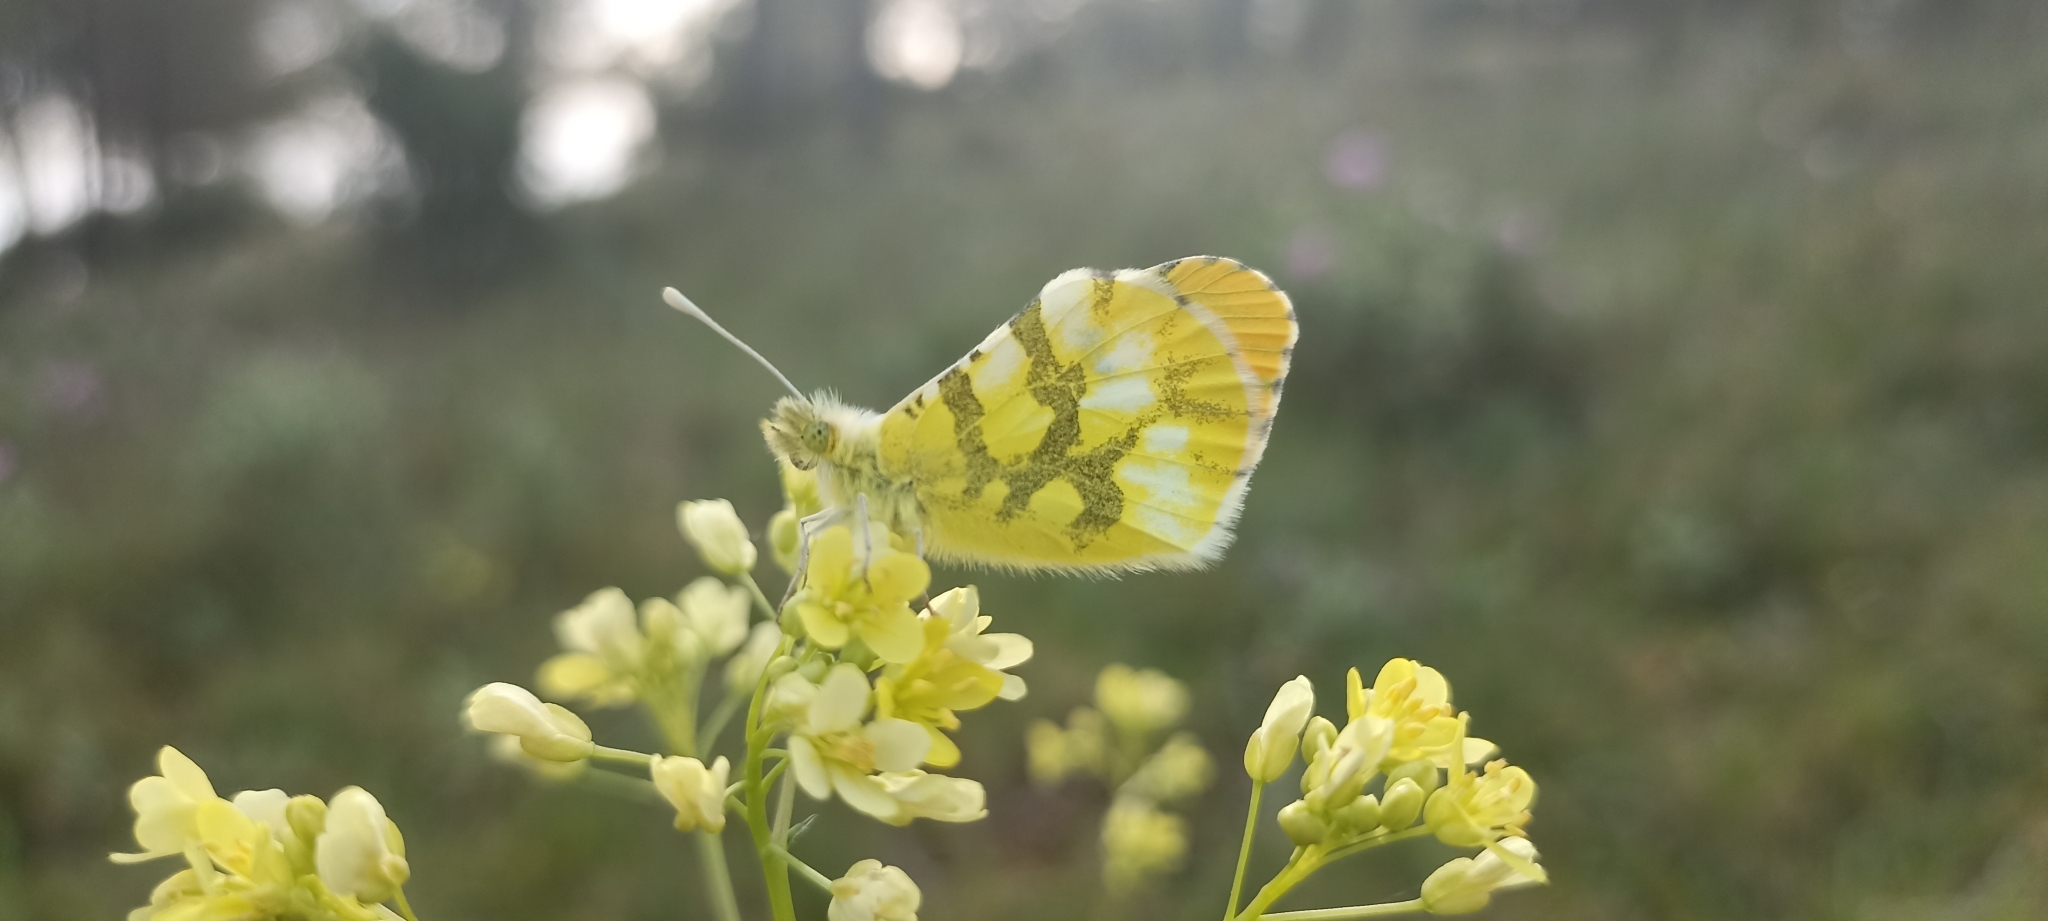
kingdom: Animalia
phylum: Arthropoda
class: Insecta
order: Lepidoptera
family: Pieridae
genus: Anthocharis
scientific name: Anthocharis euphenoides
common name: Provence orange-tip
